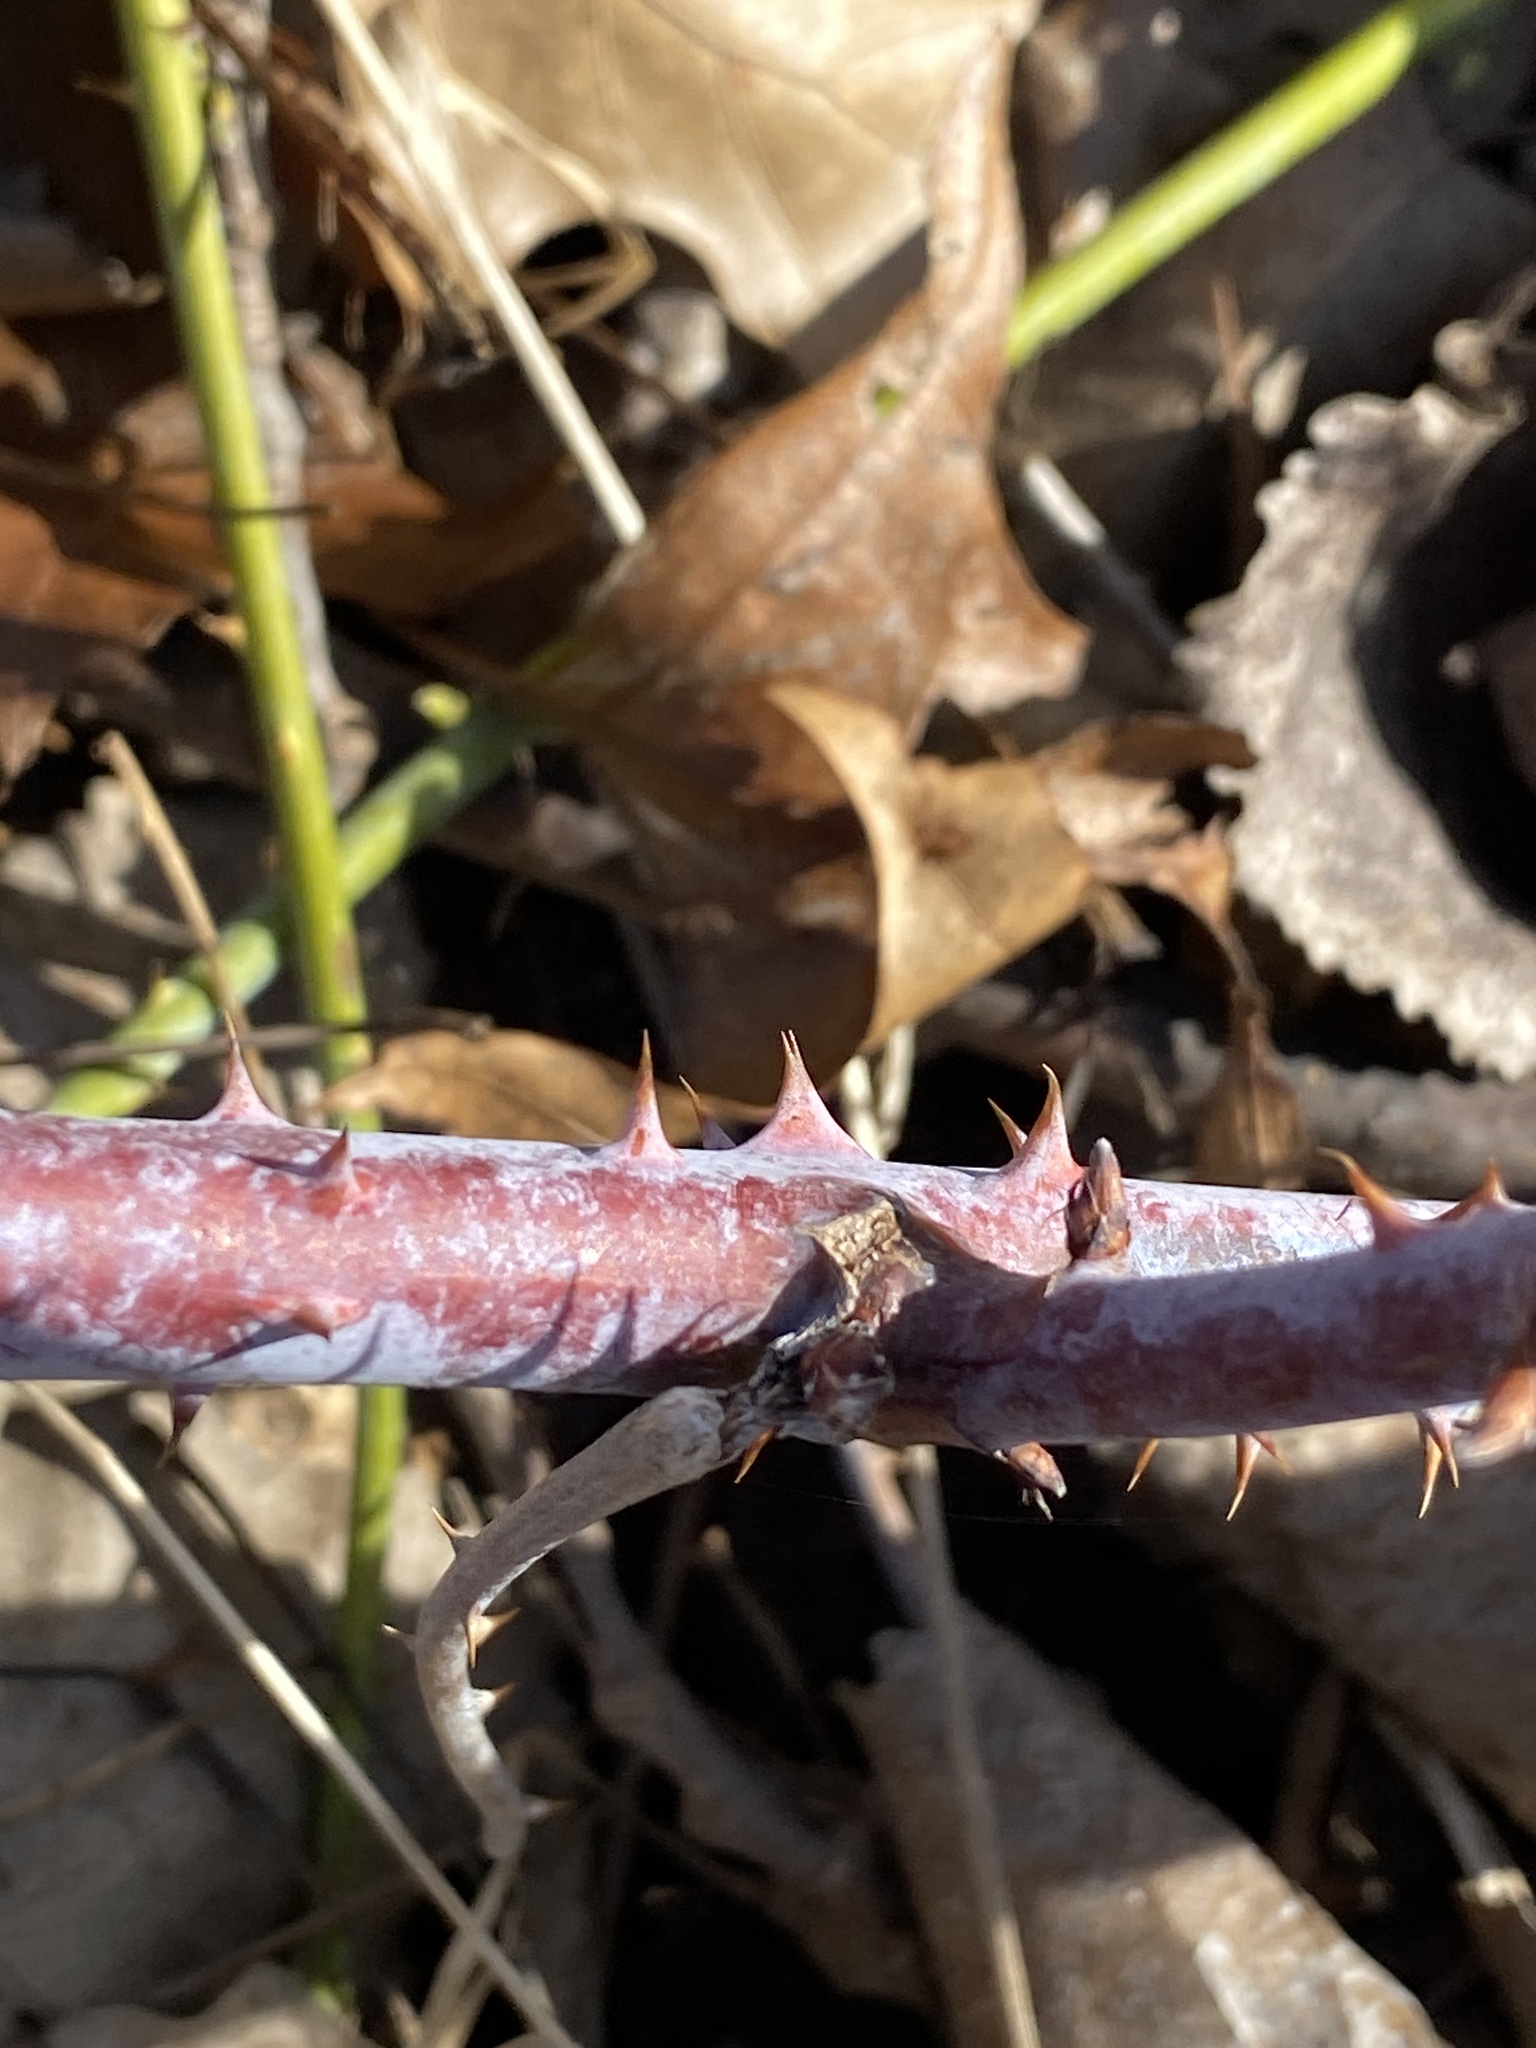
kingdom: Plantae
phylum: Tracheophyta
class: Magnoliopsida
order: Rosales
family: Rosaceae
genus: Rubus
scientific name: Rubus occidentalis
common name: Black raspberry
